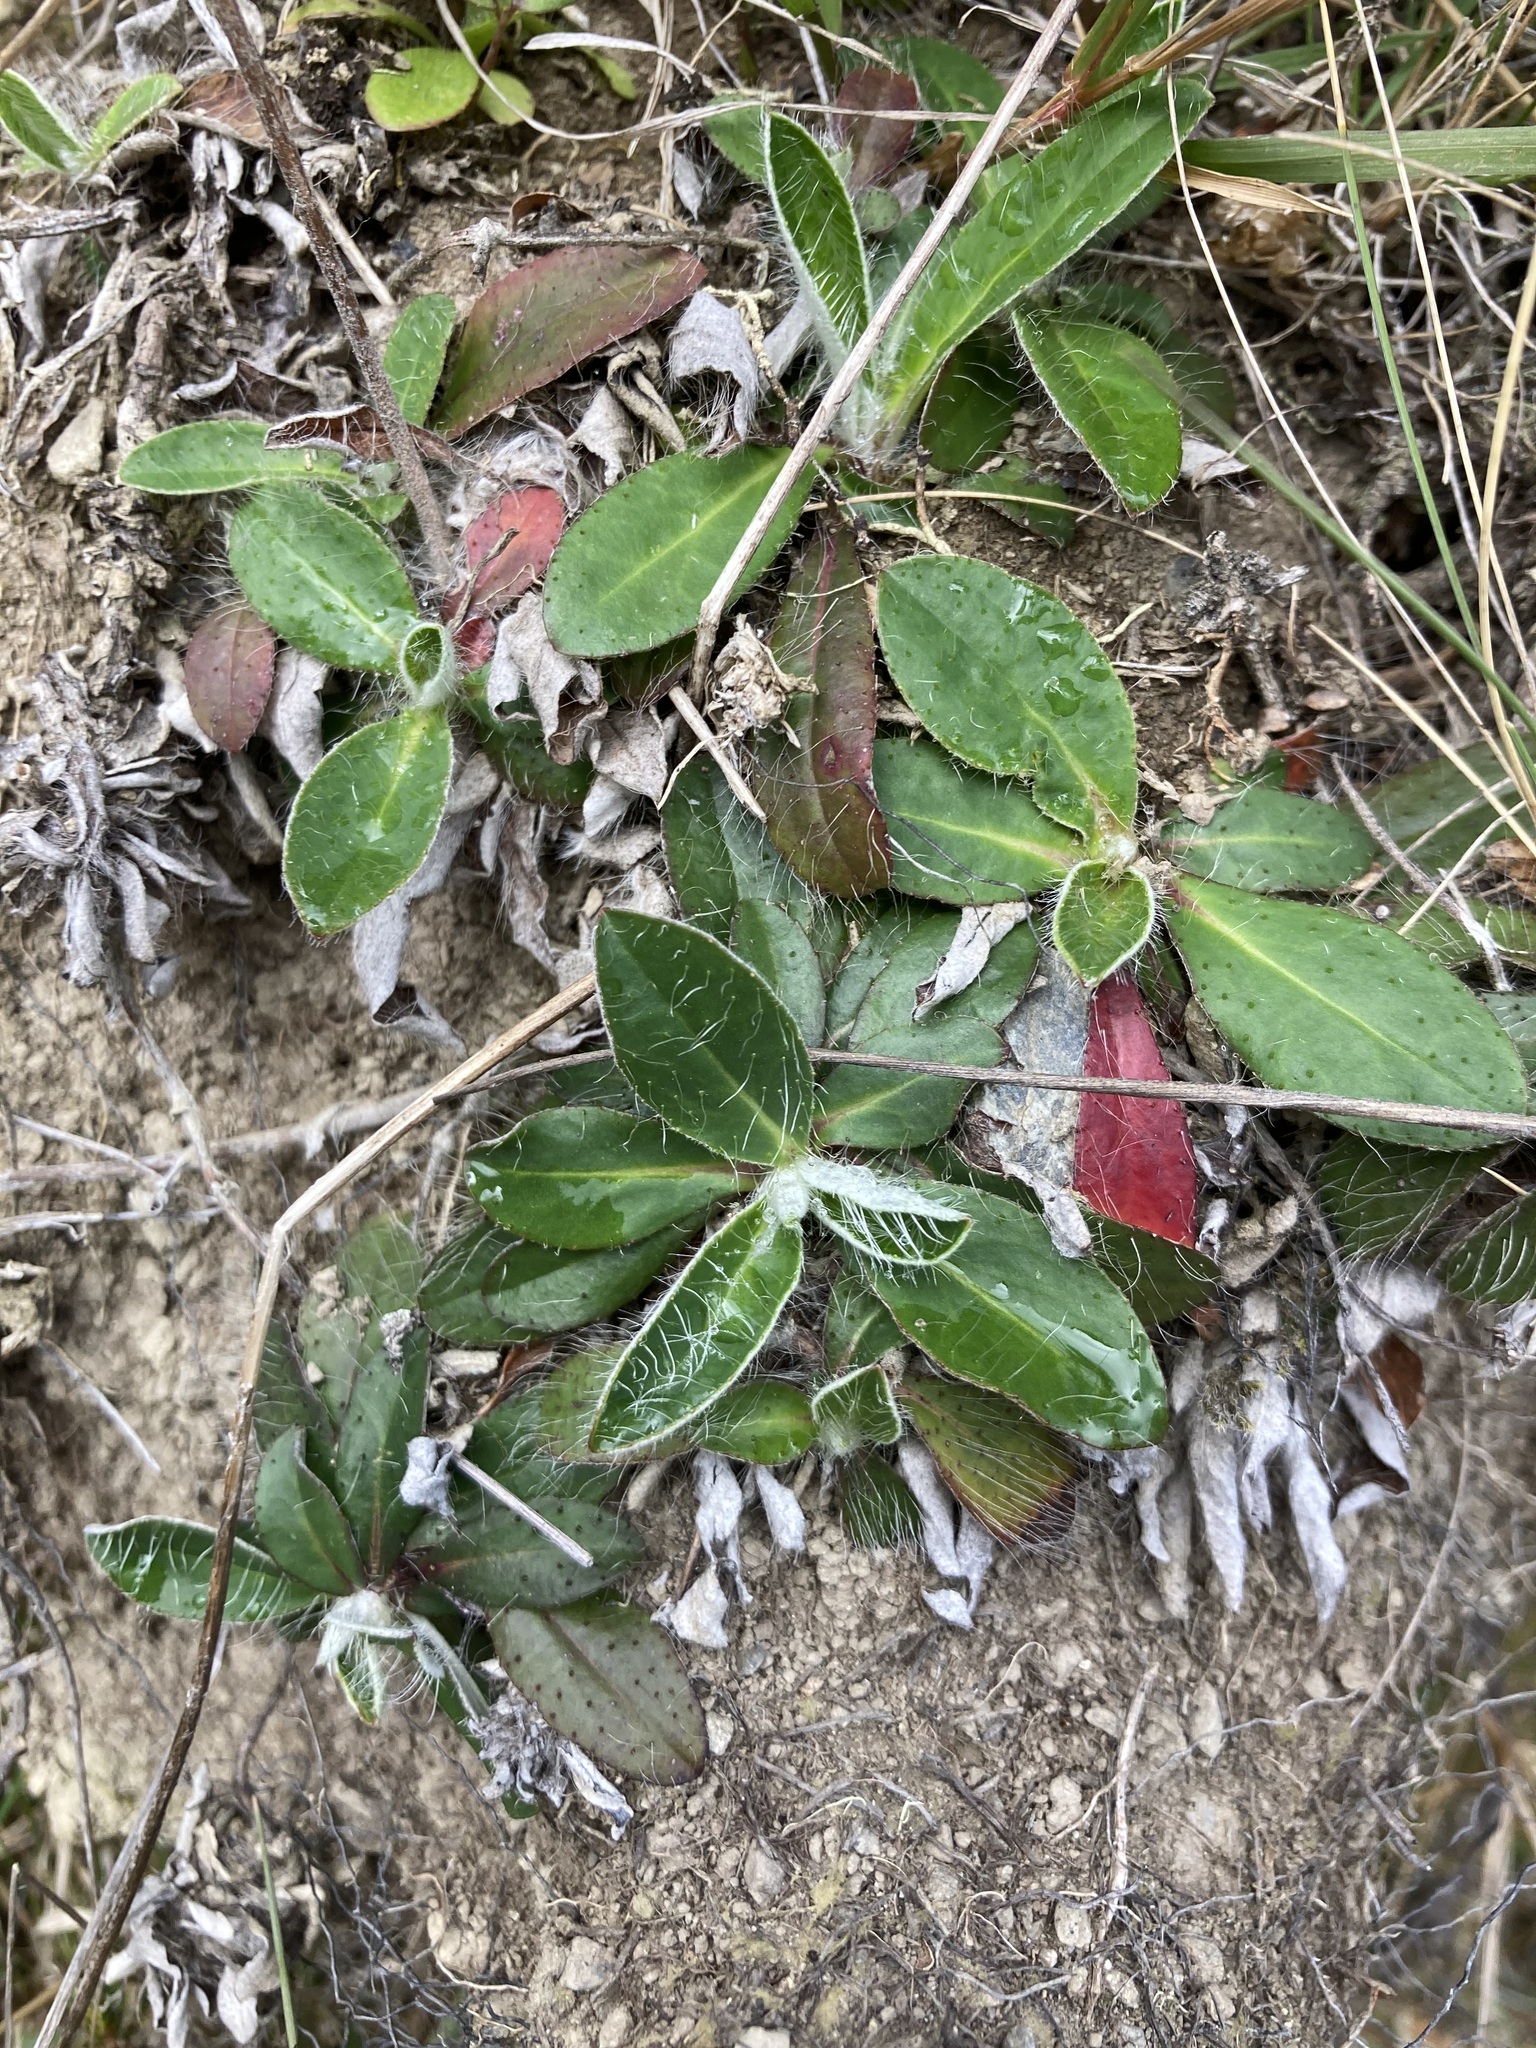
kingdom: Plantae
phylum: Tracheophyta
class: Magnoliopsida
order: Asterales
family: Asteraceae
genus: Pilosella
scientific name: Pilosella officinarum
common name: Mouse-ear hawkweed
